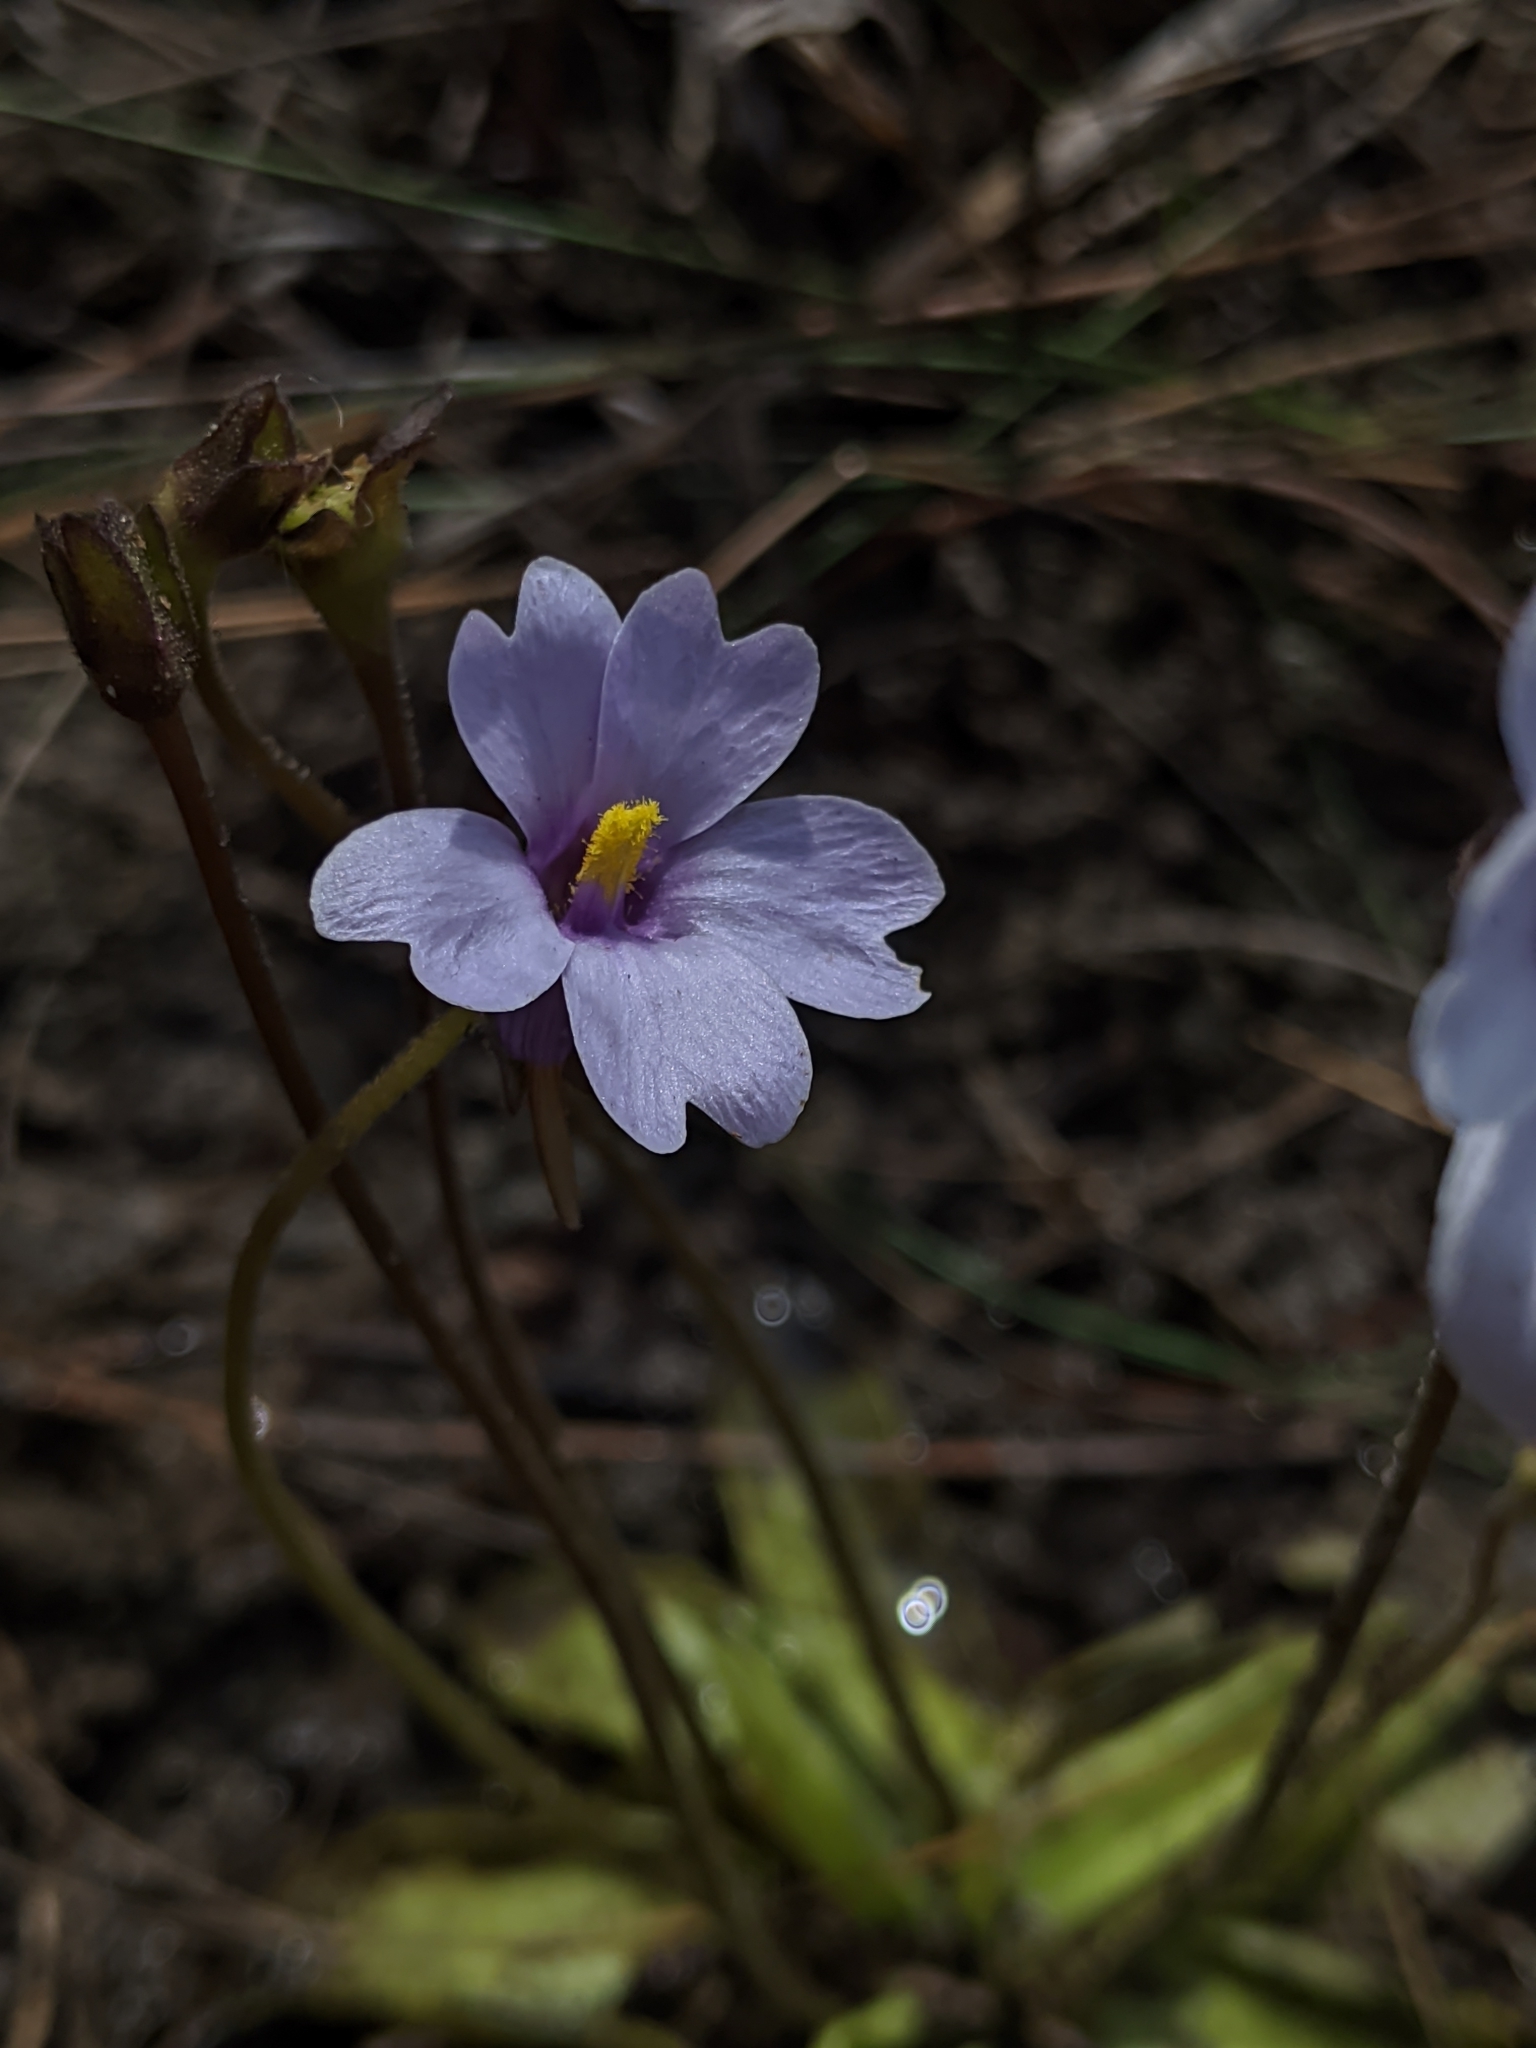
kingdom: Plantae
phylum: Tracheophyta
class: Magnoliopsida
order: Lamiales
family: Lentibulariaceae
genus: Pinguicula
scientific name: Pinguicula ionantha
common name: Godfrey's butterwort
